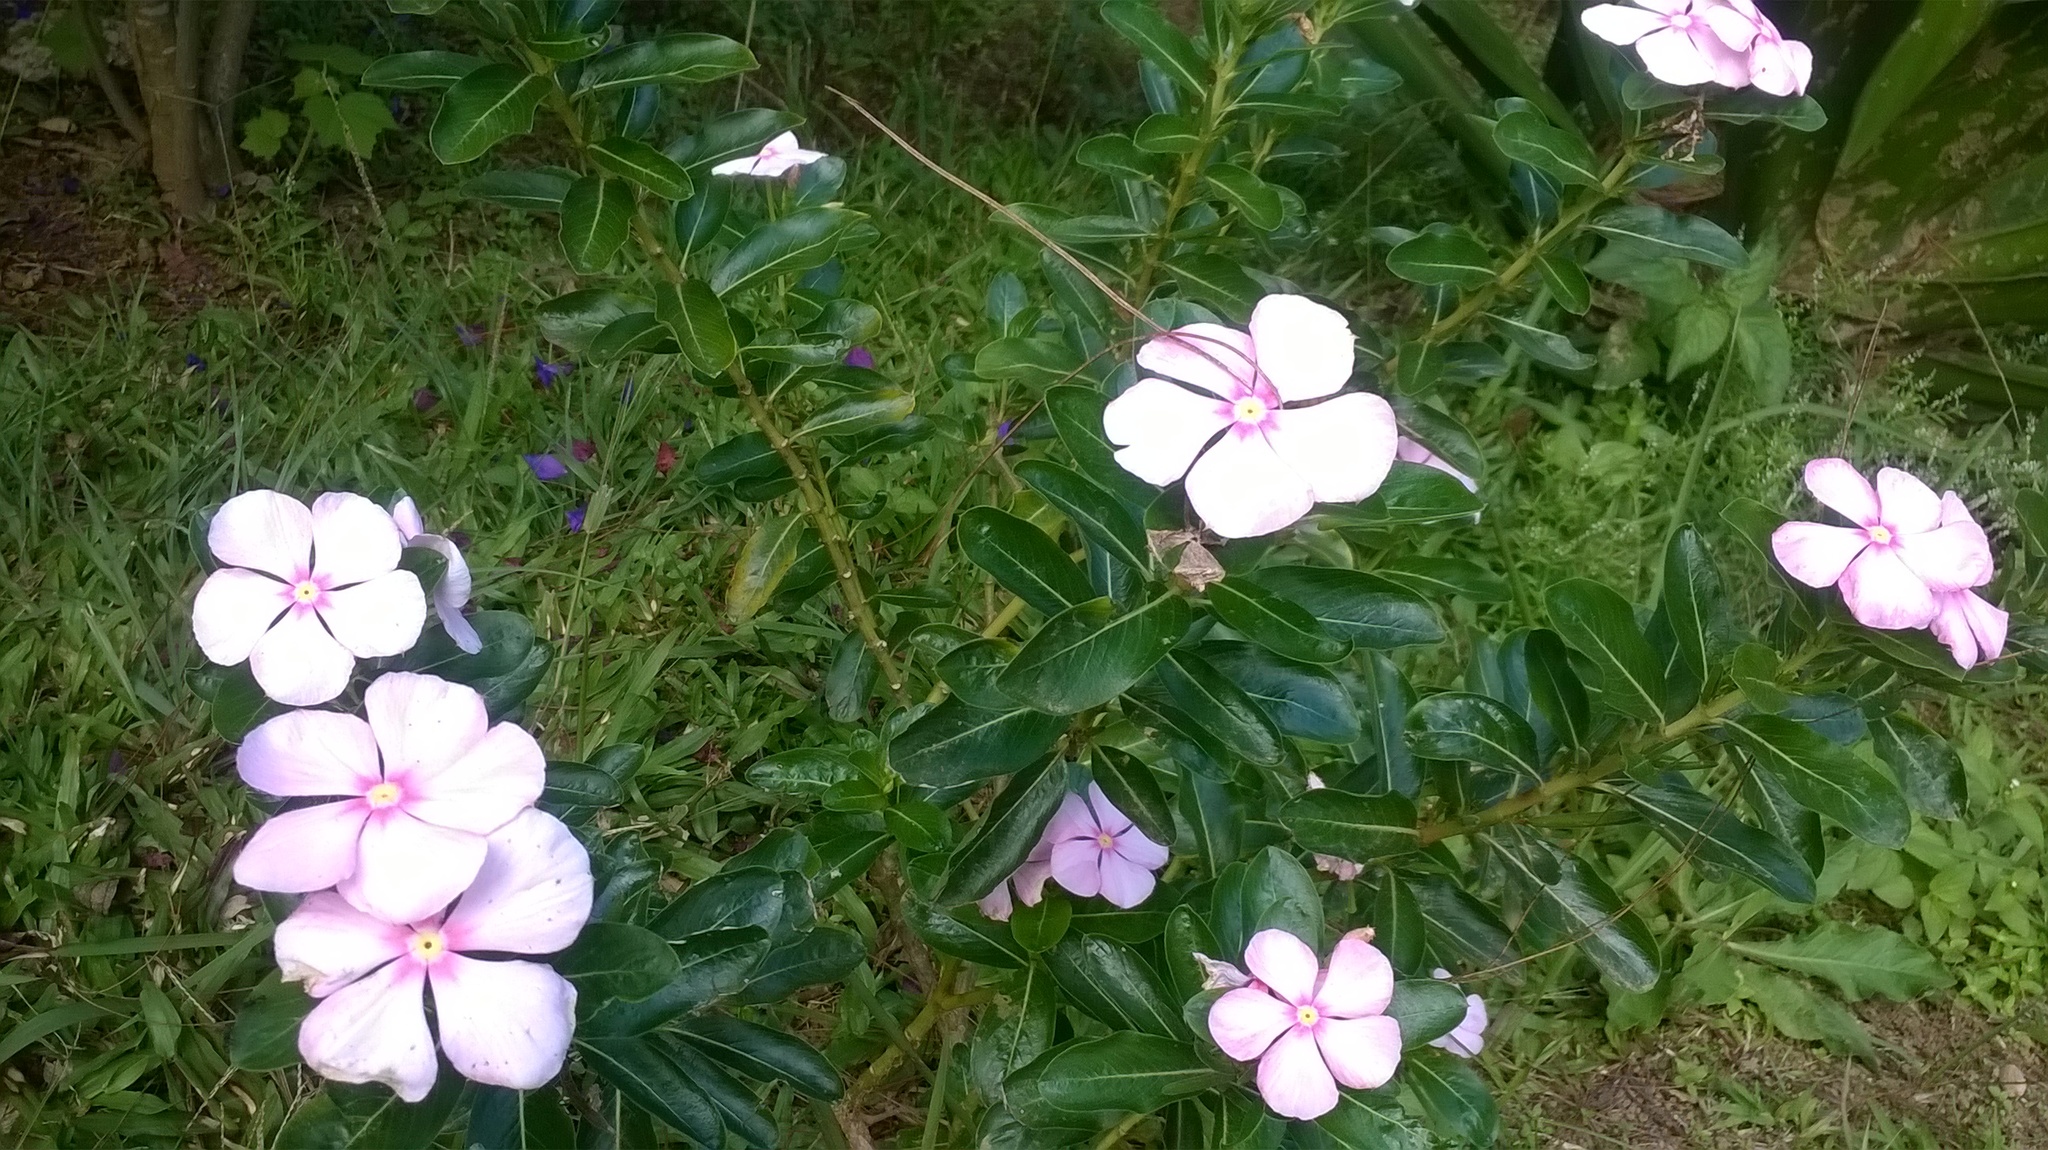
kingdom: Plantae
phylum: Tracheophyta
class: Magnoliopsida
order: Gentianales
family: Apocynaceae
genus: Catharanthus
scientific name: Catharanthus roseus
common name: Madagascar periwinkle
